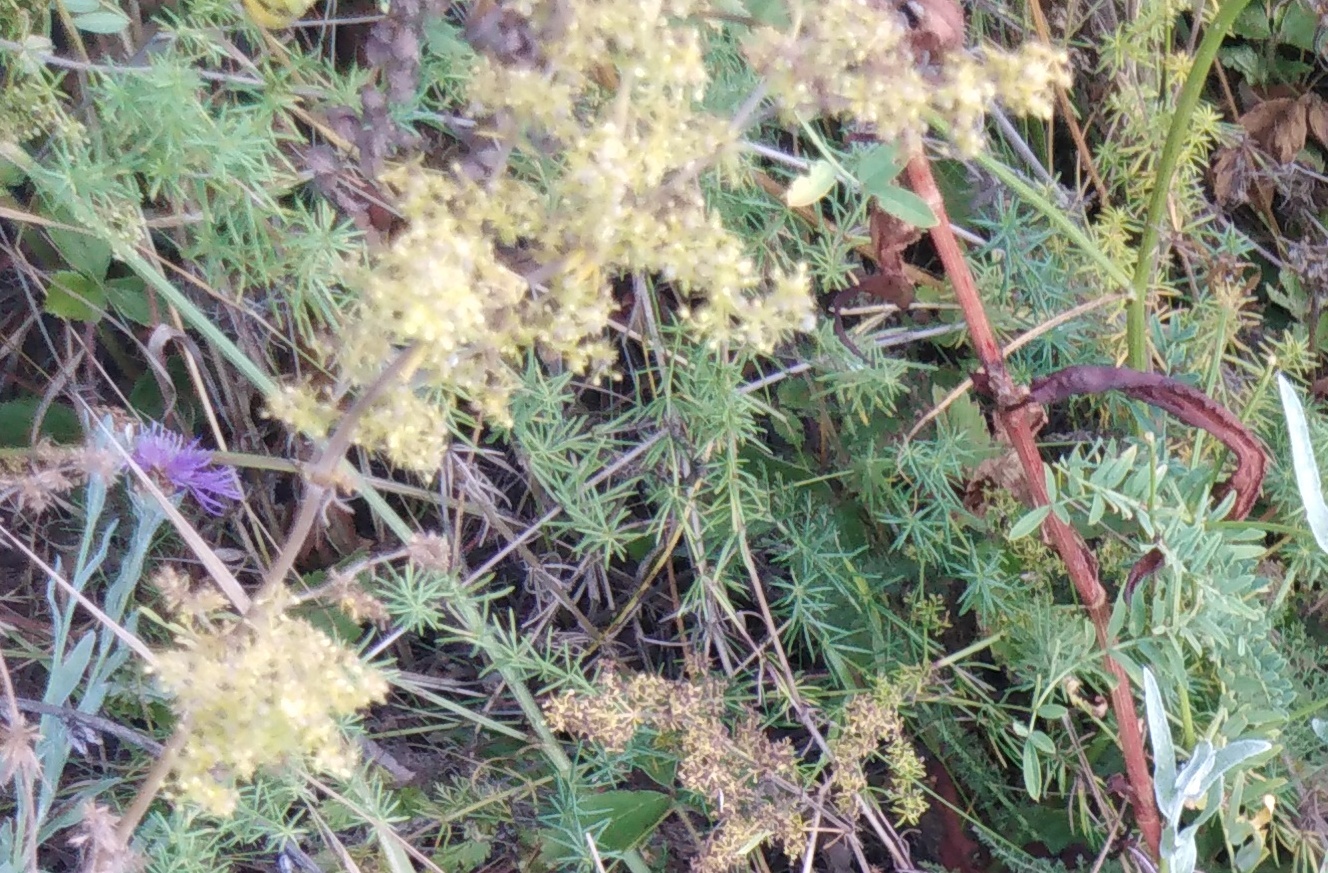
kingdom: Plantae
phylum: Tracheophyta
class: Magnoliopsida
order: Gentianales
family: Rubiaceae
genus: Galium
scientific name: Galium verum
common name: Lady's bedstraw
